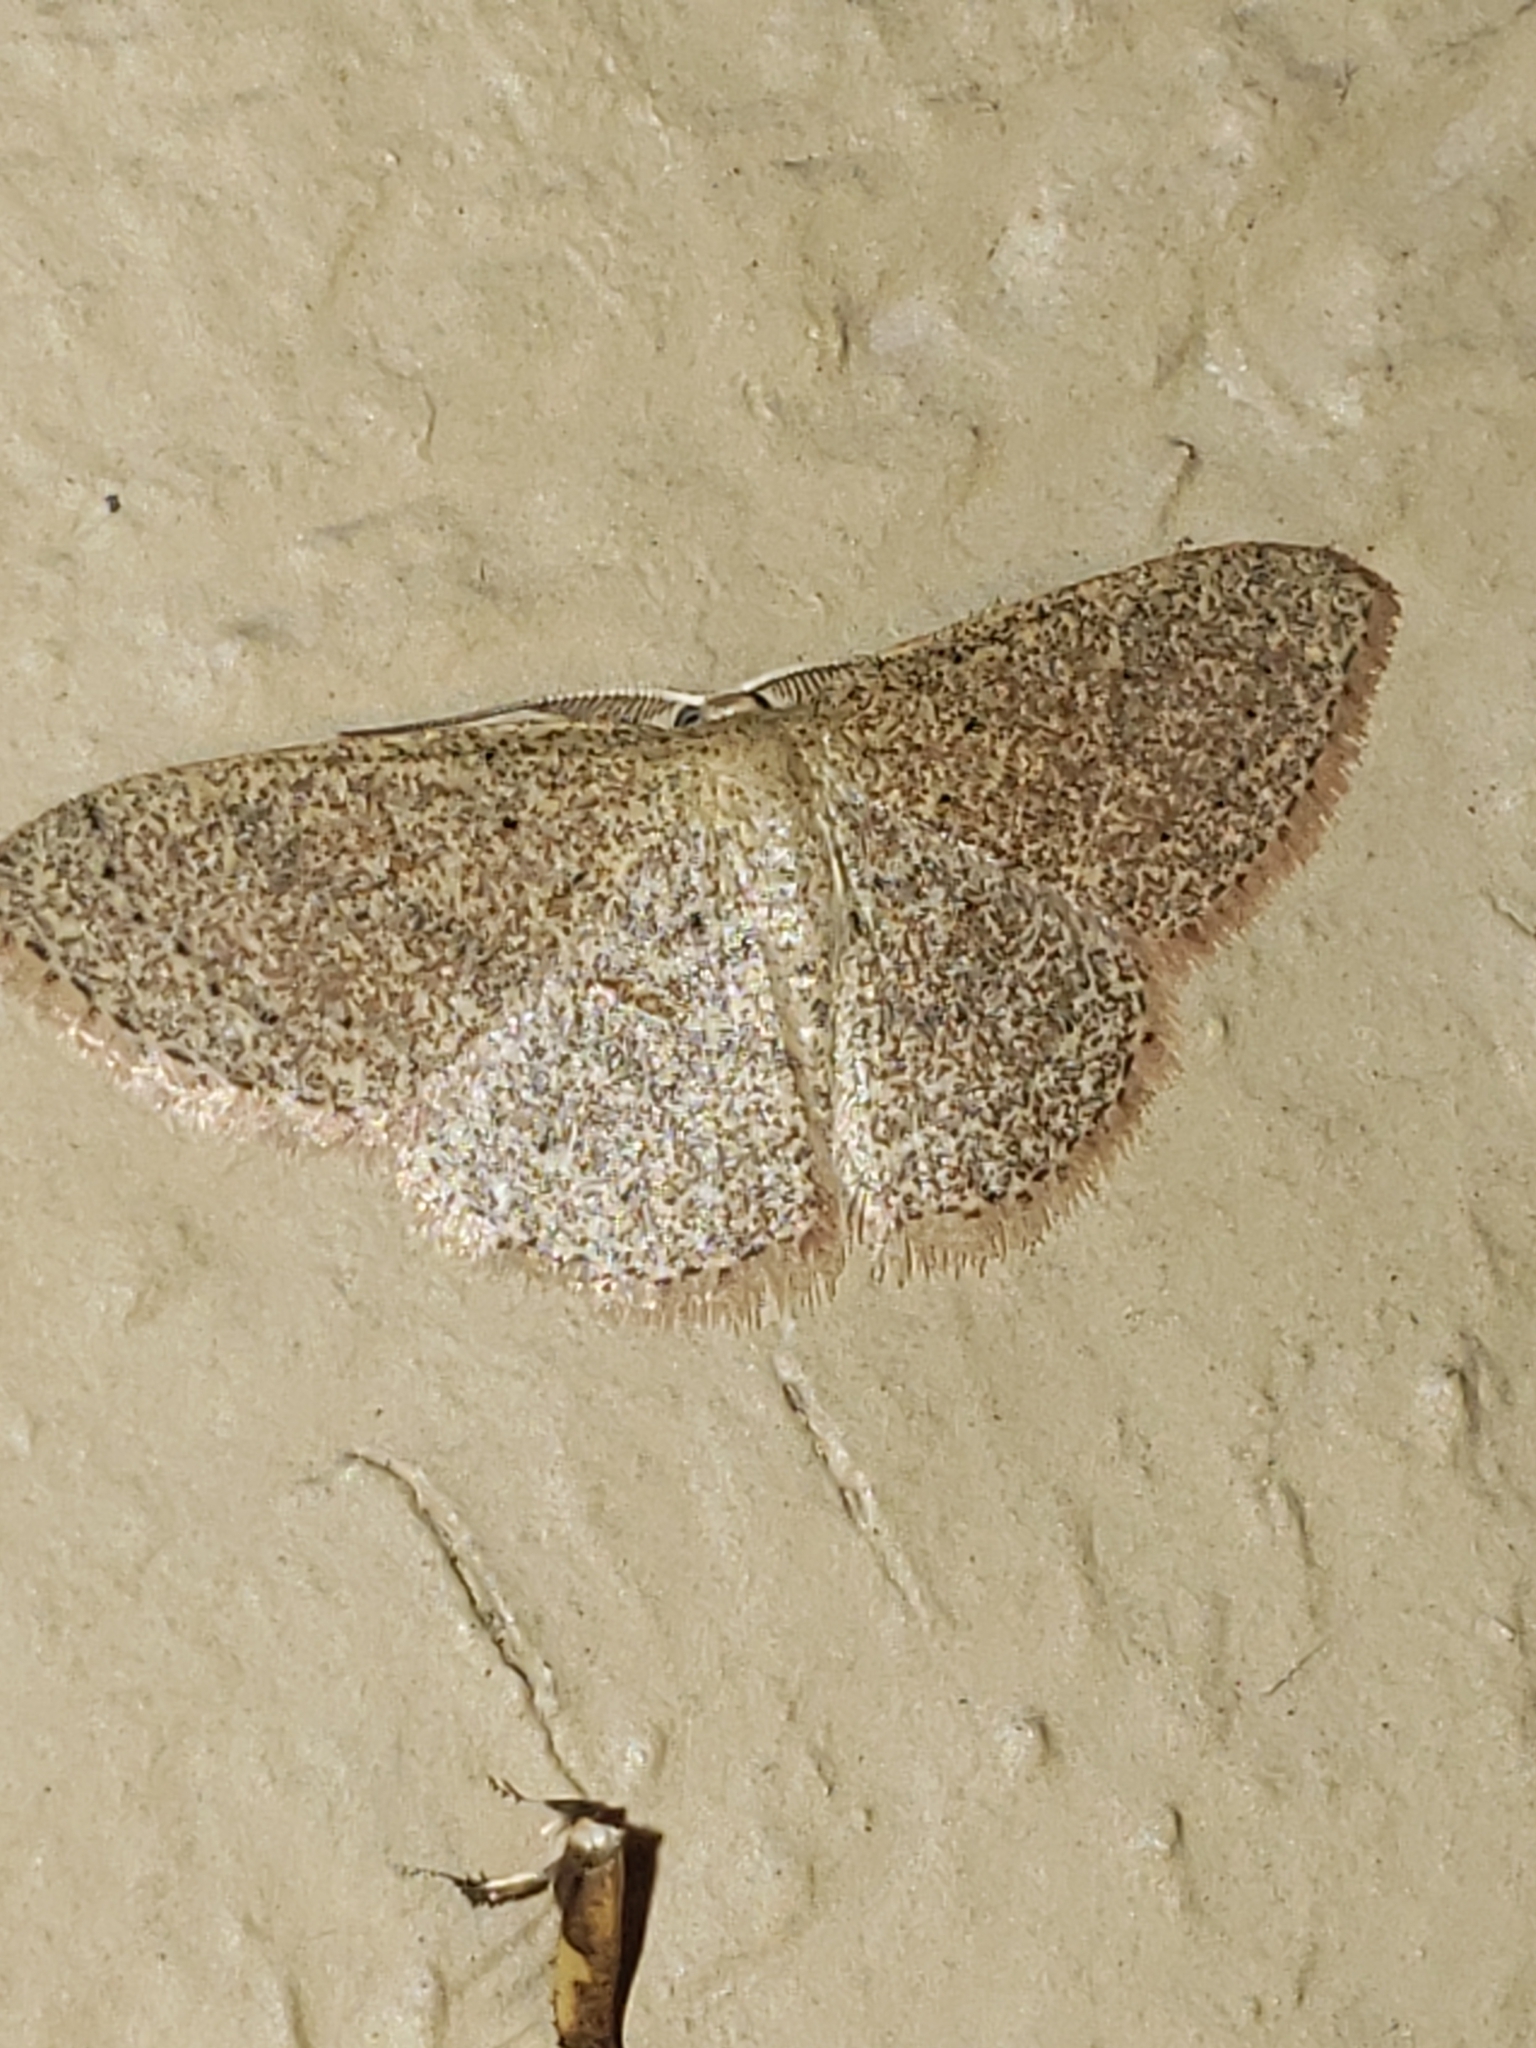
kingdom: Animalia
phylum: Arthropoda
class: Insecta
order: Lepidoptera
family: Geometridae
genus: Pleuroprucha
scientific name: Pleuroprucha insulsaria
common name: Common tan wave
